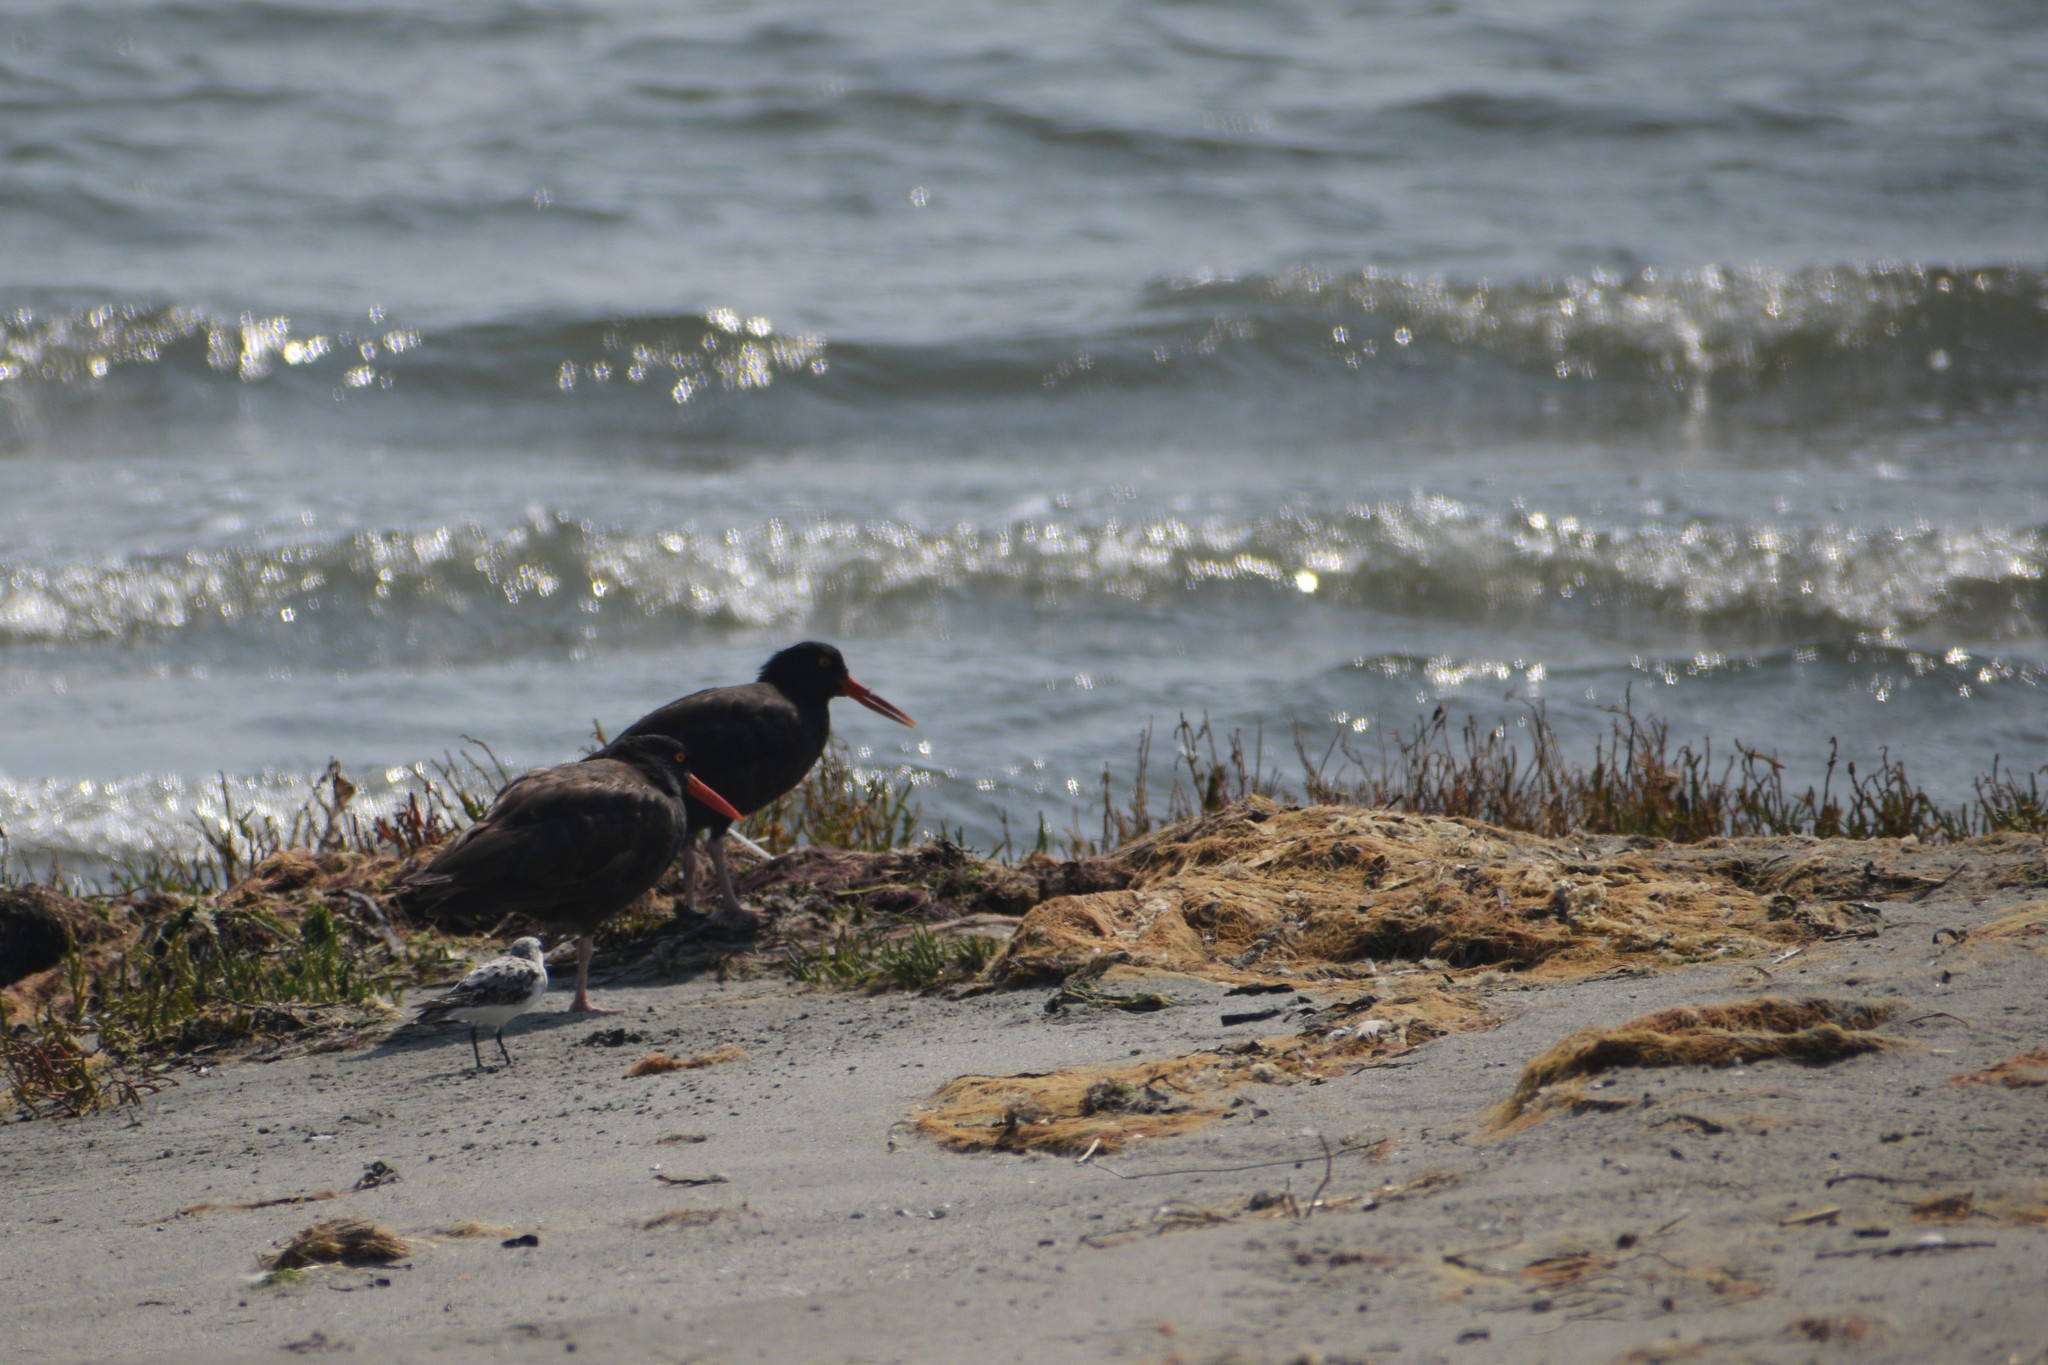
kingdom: Animalia
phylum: Chordata
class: Aves
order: Charadriiformes
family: Haematopodidae
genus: Haematopus
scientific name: Haematopus bachmani
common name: Black oystercatcher
